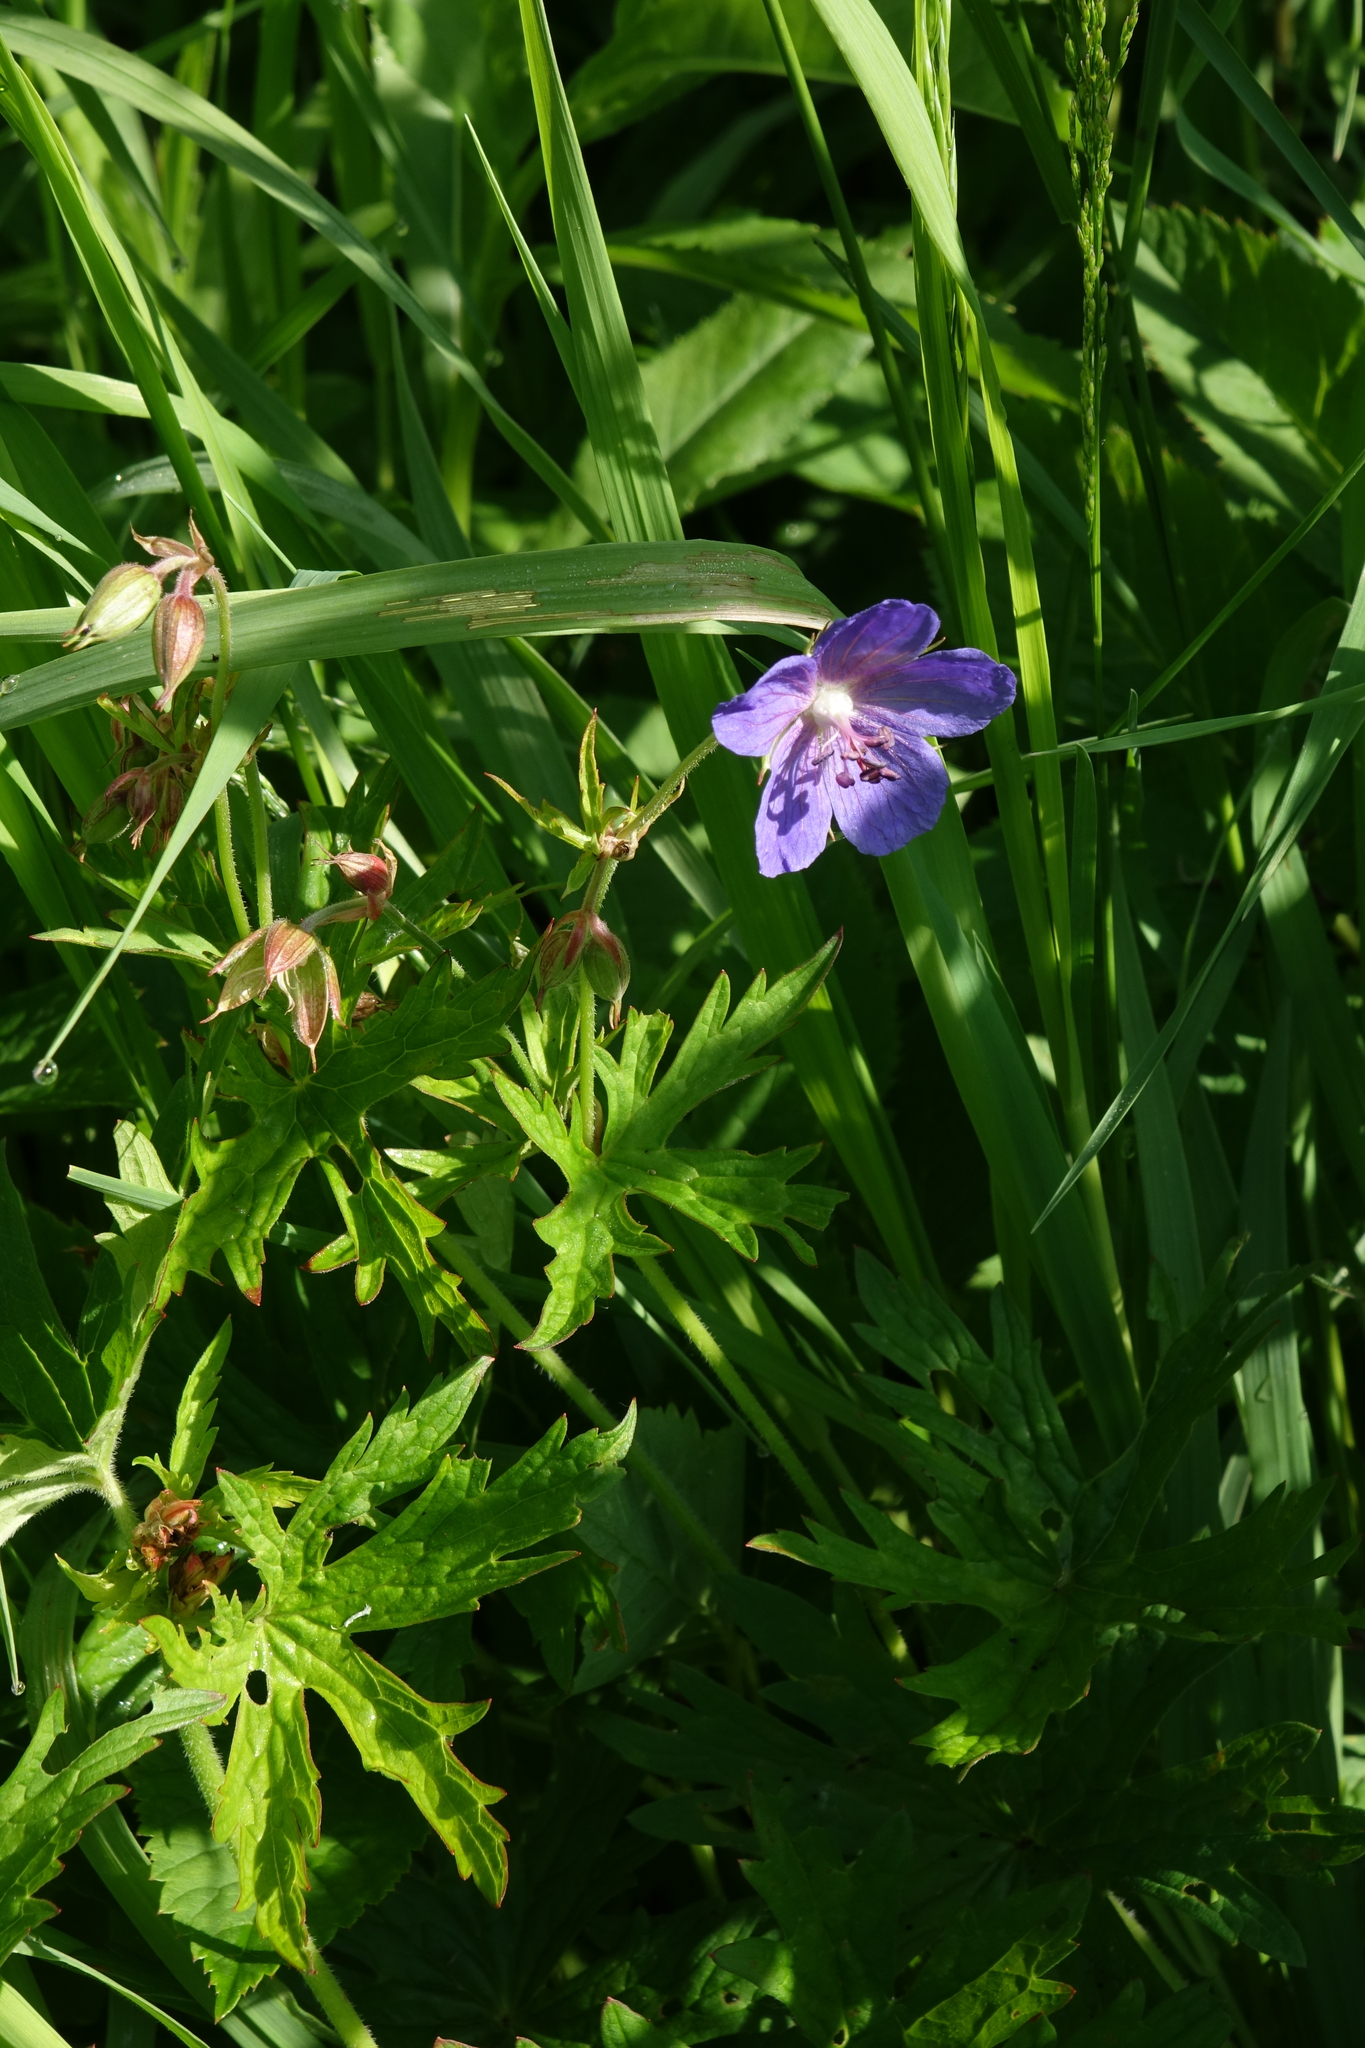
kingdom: Plantae
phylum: Tracheophyta
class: Magnoliopsida
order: Geraniales
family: Geraniaceae
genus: Geranium
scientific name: Geranium pratense
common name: Meadow crane's-bill
